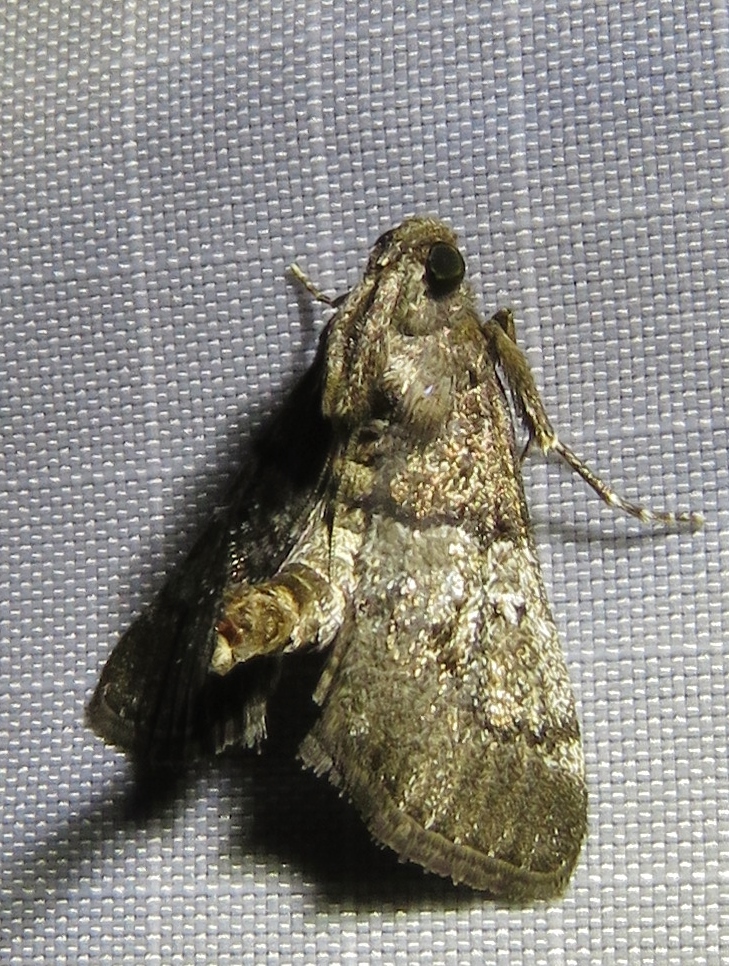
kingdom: Animalia
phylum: Arthropoda
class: Insecta
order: Lepidoptera
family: Pyralidae
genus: Macalla
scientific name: Macalla zelleri
